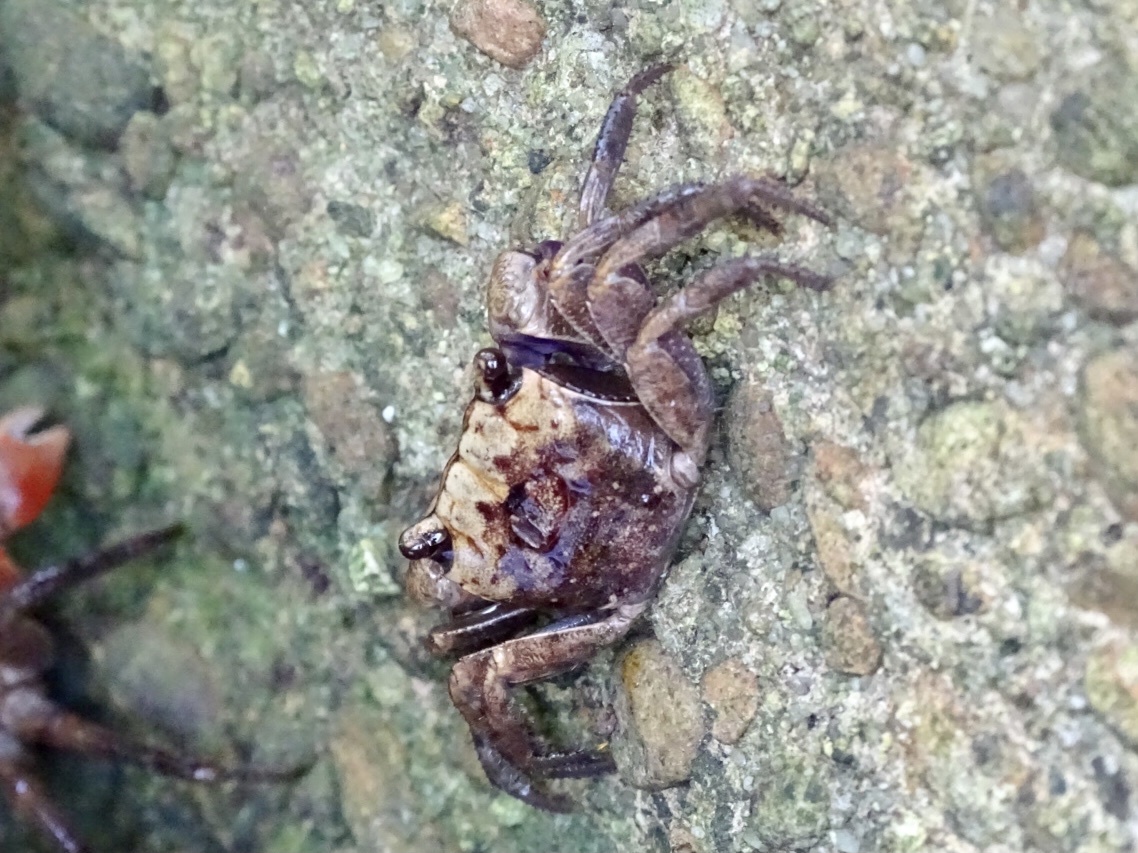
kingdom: Animalia
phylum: Arthropoda
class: Malacostraca
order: Decapoda
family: Sesarmidae
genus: Orisarma
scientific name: Orisarma patshuni
